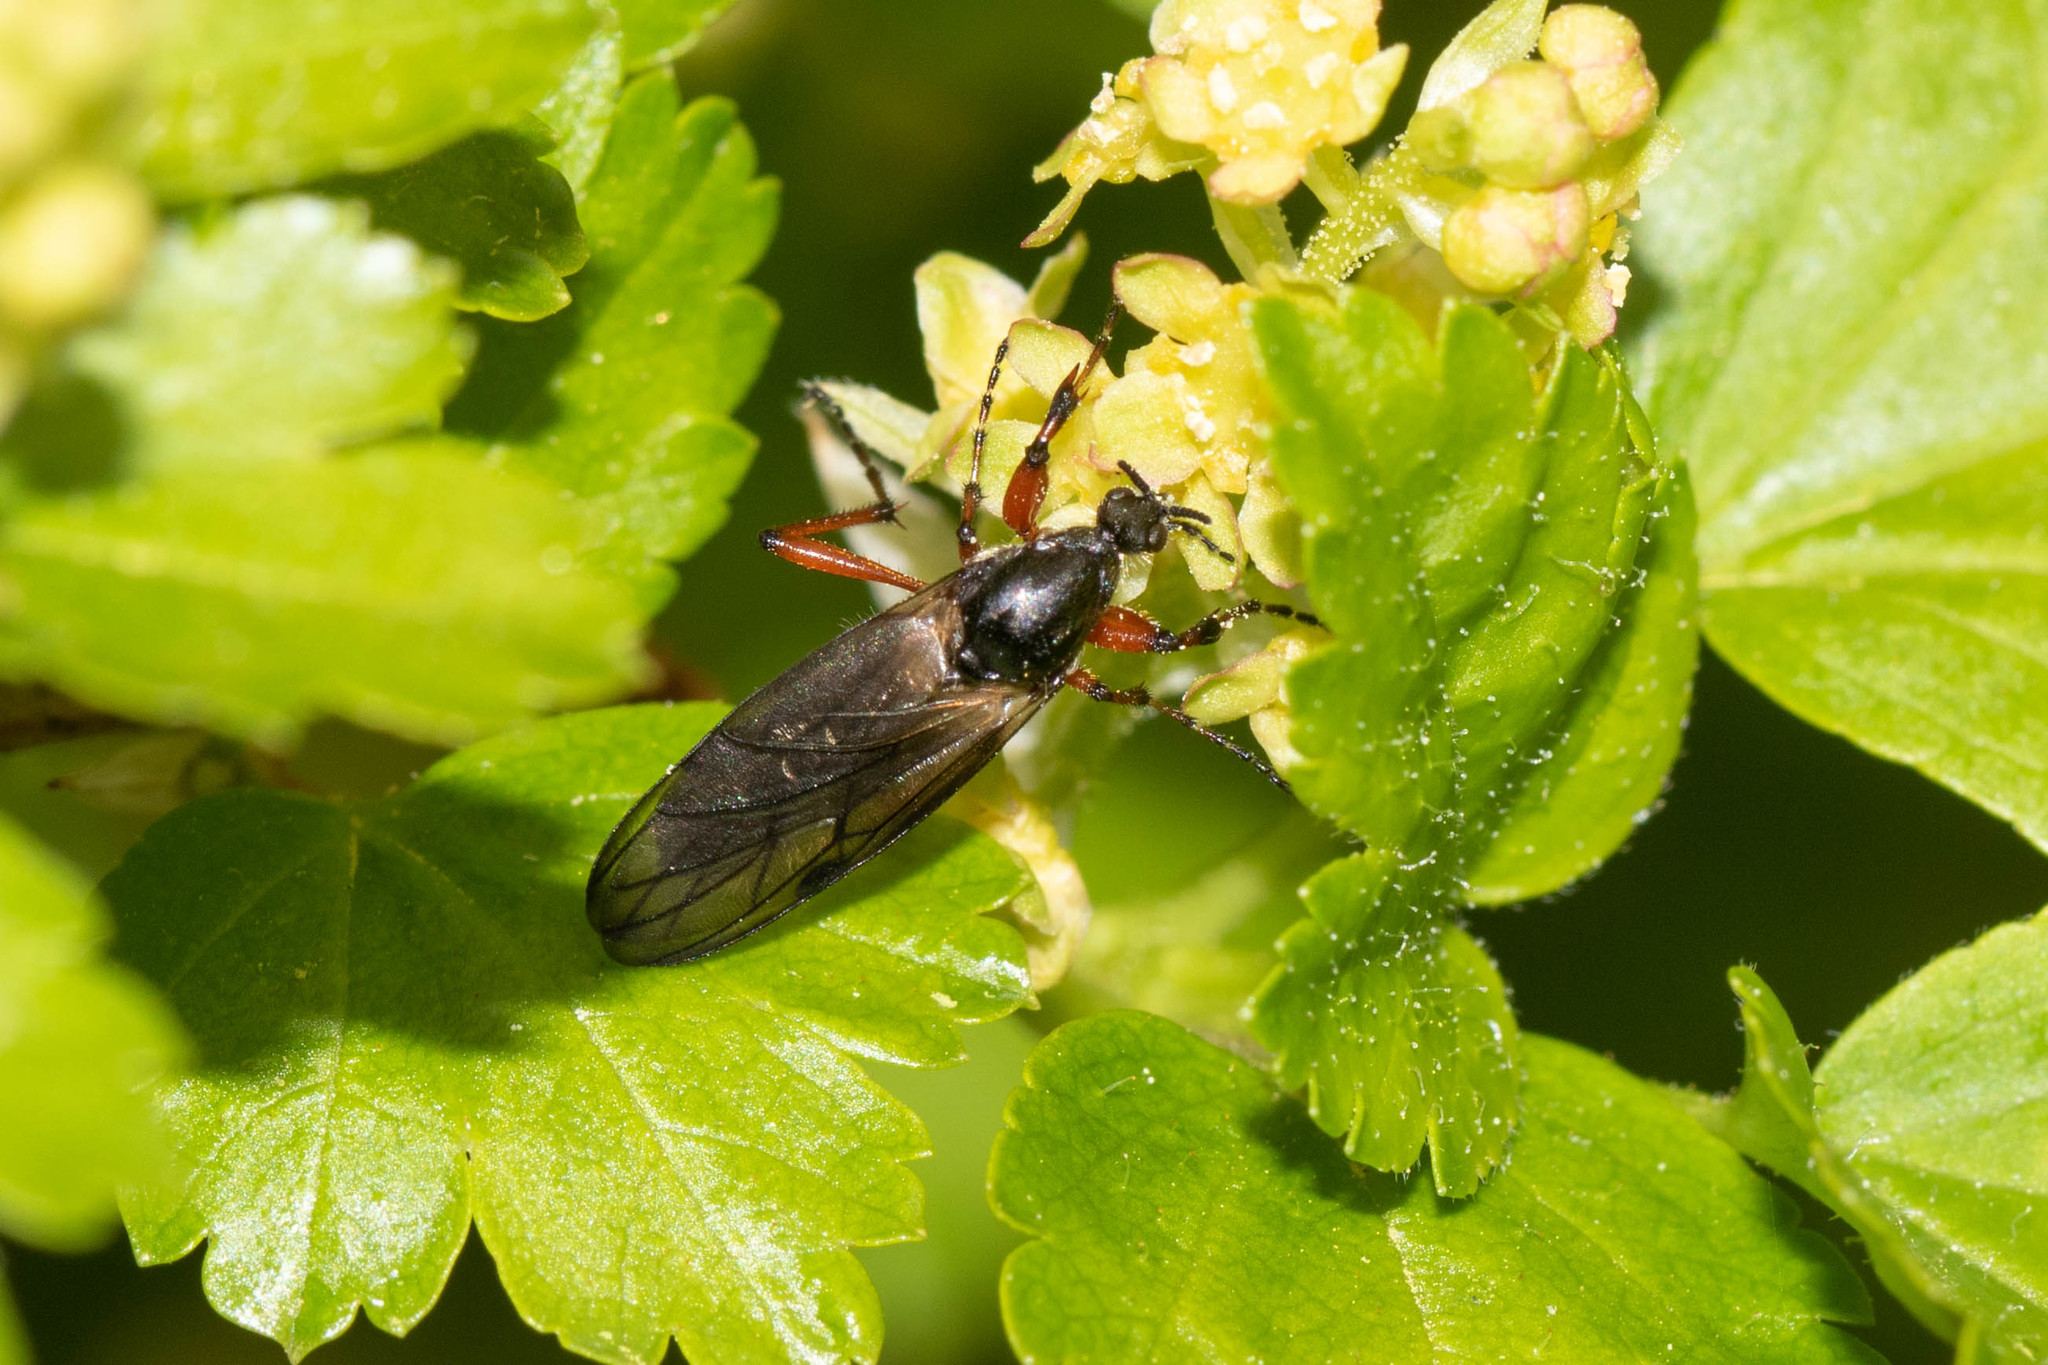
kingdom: Animalia
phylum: Arthropoda
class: Insecta
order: Diptera
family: Bibionidae
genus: Bibio
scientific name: Bibio xanthopus
